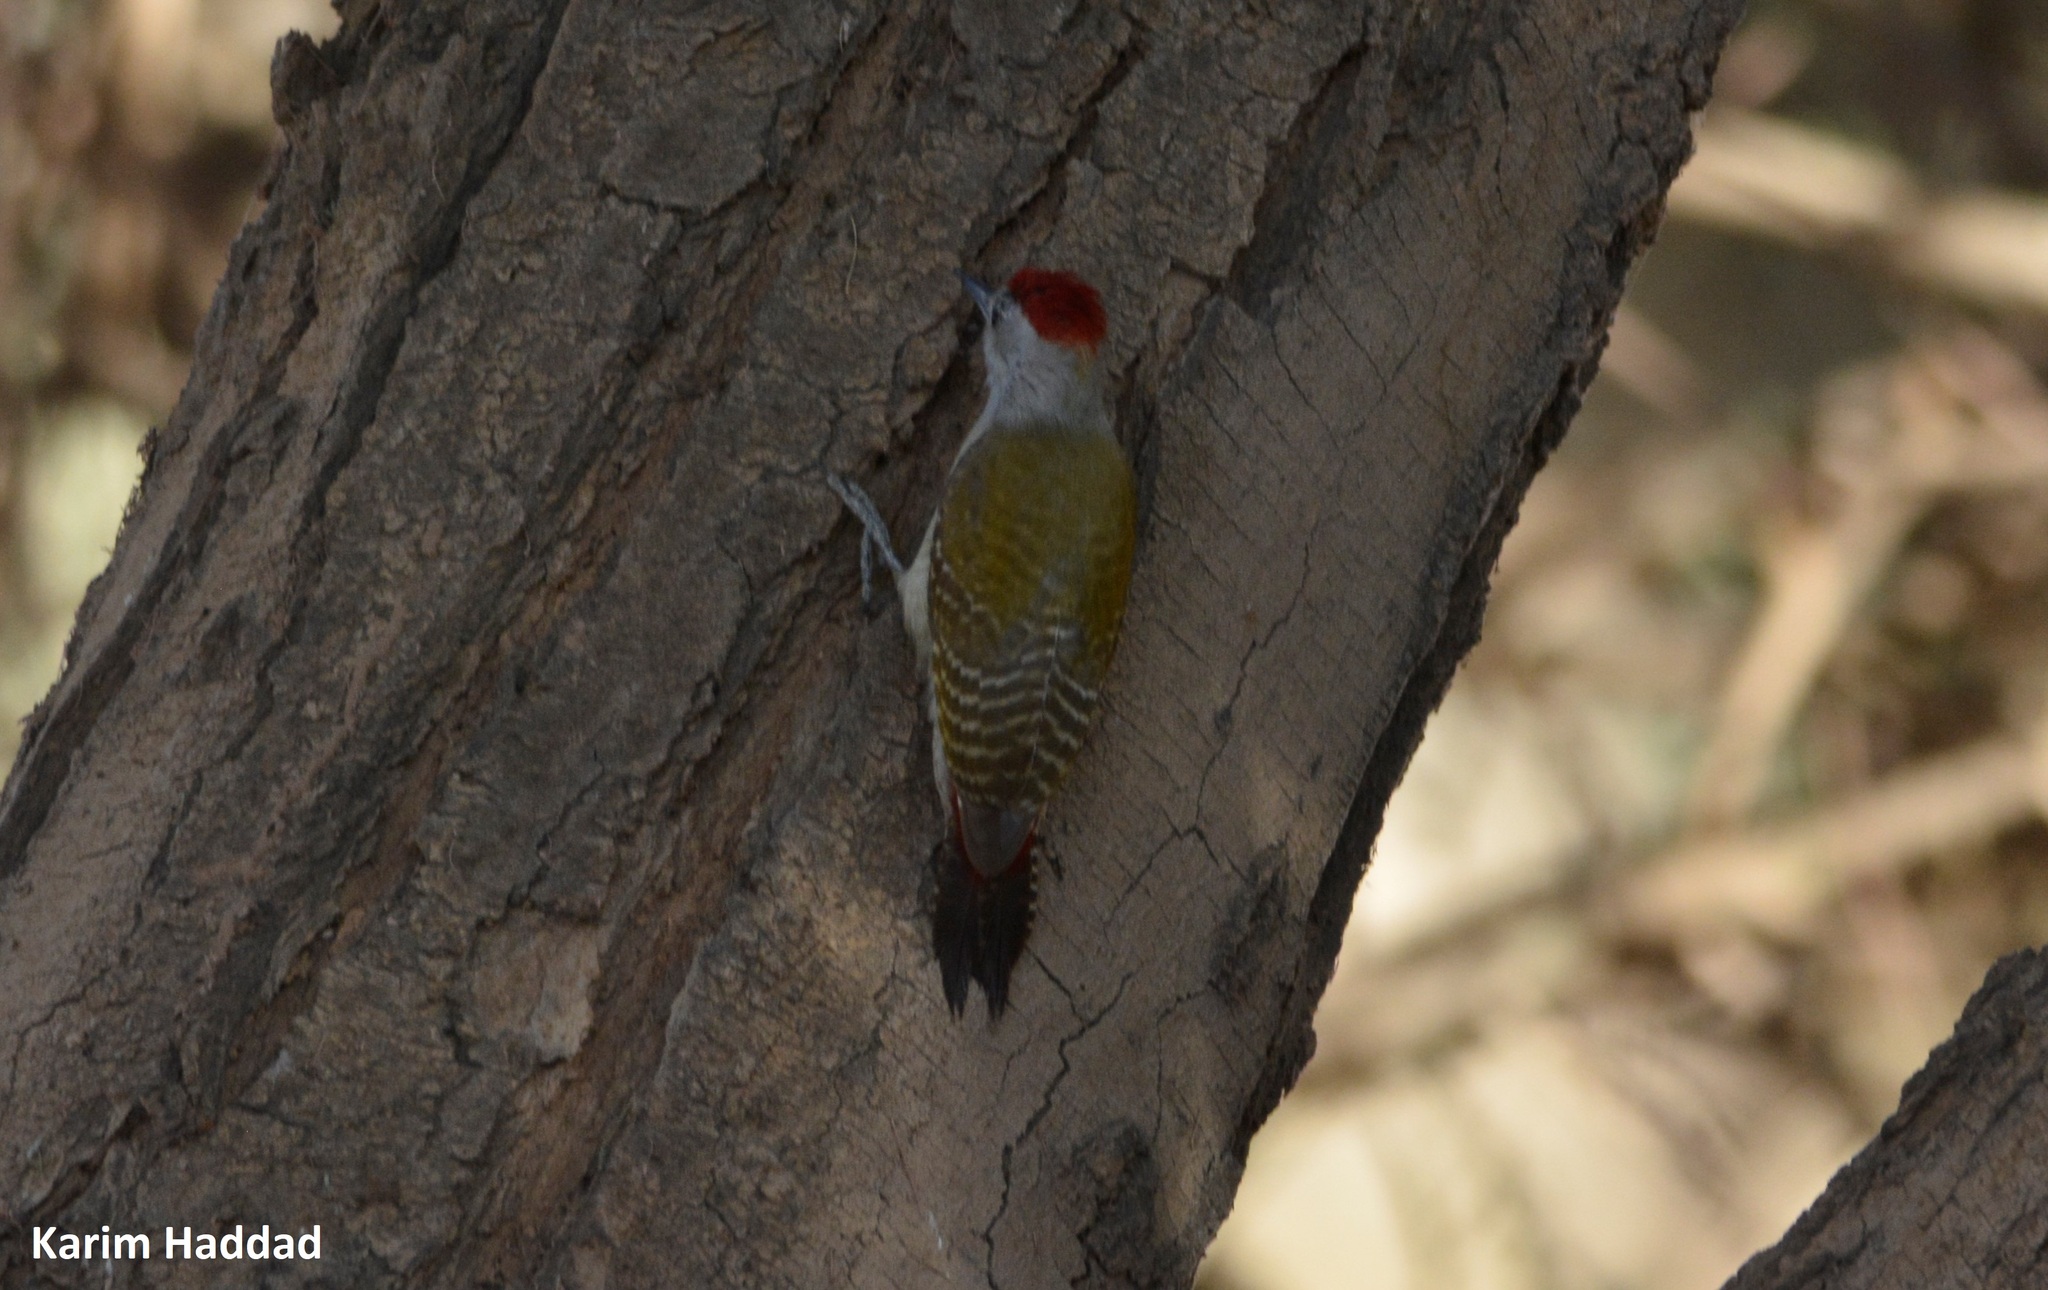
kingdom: Animalia
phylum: Chordata
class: Aves
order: Piciformes
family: Picidae
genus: Dendropicos
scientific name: Dendropicos goertae
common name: African grey woodpecker
